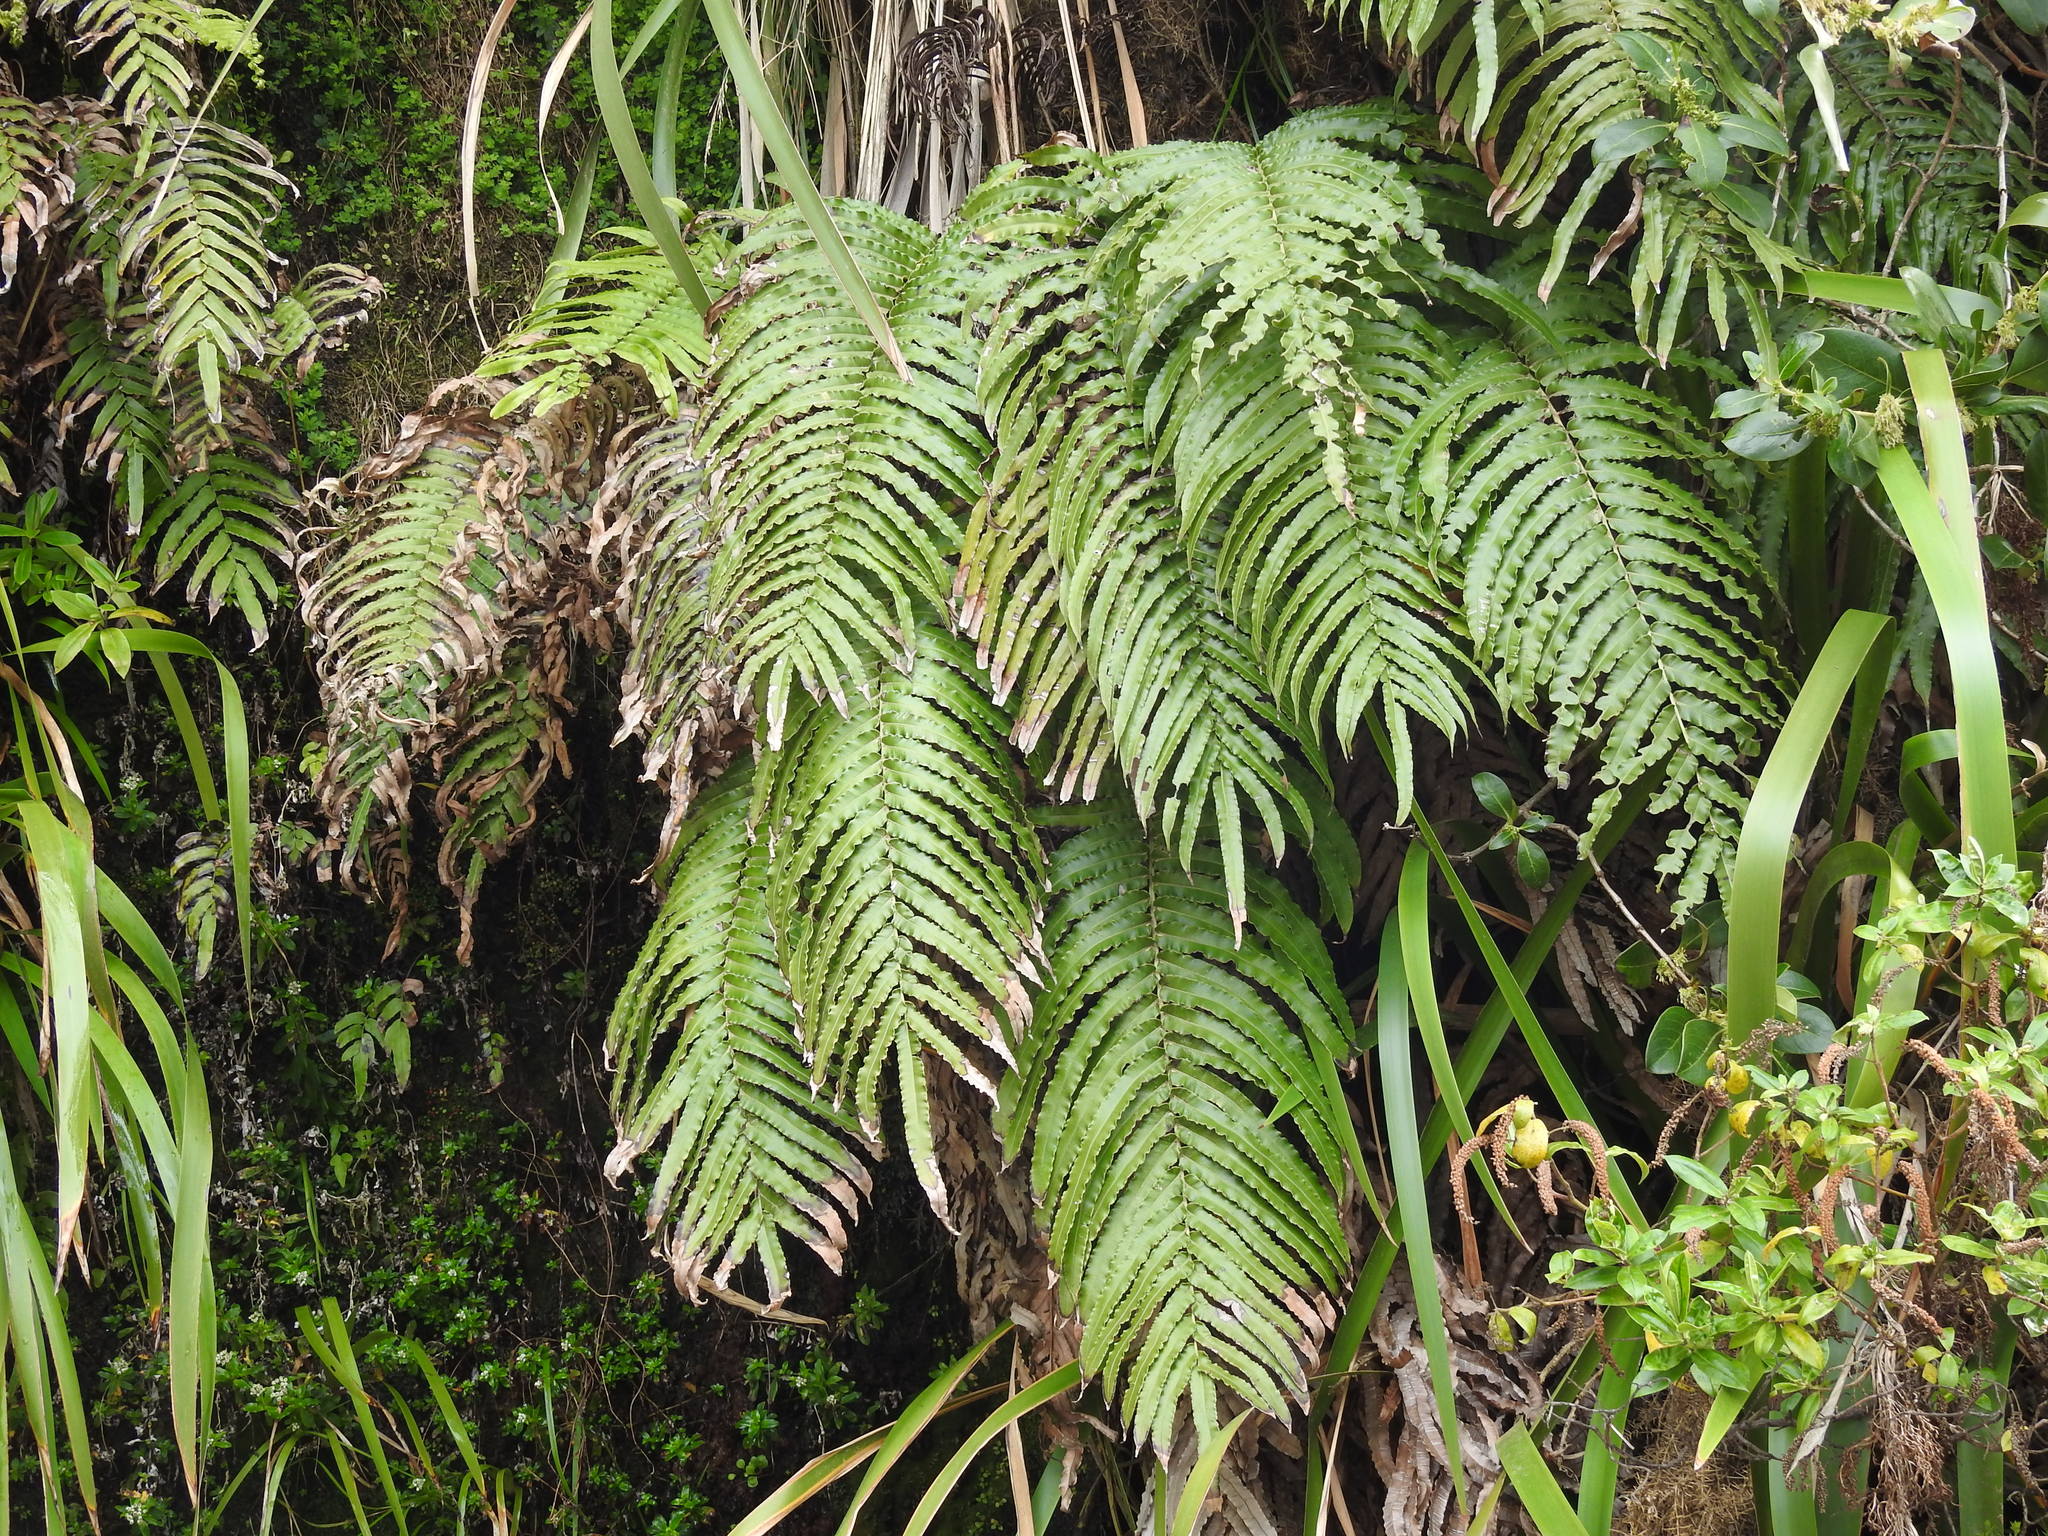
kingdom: Plantae
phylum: Tracheophyta
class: Polypodiopsida
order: Polypodiales
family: Blechnaceae
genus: Parablechnum
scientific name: Parablechnum novae-zelandiae
